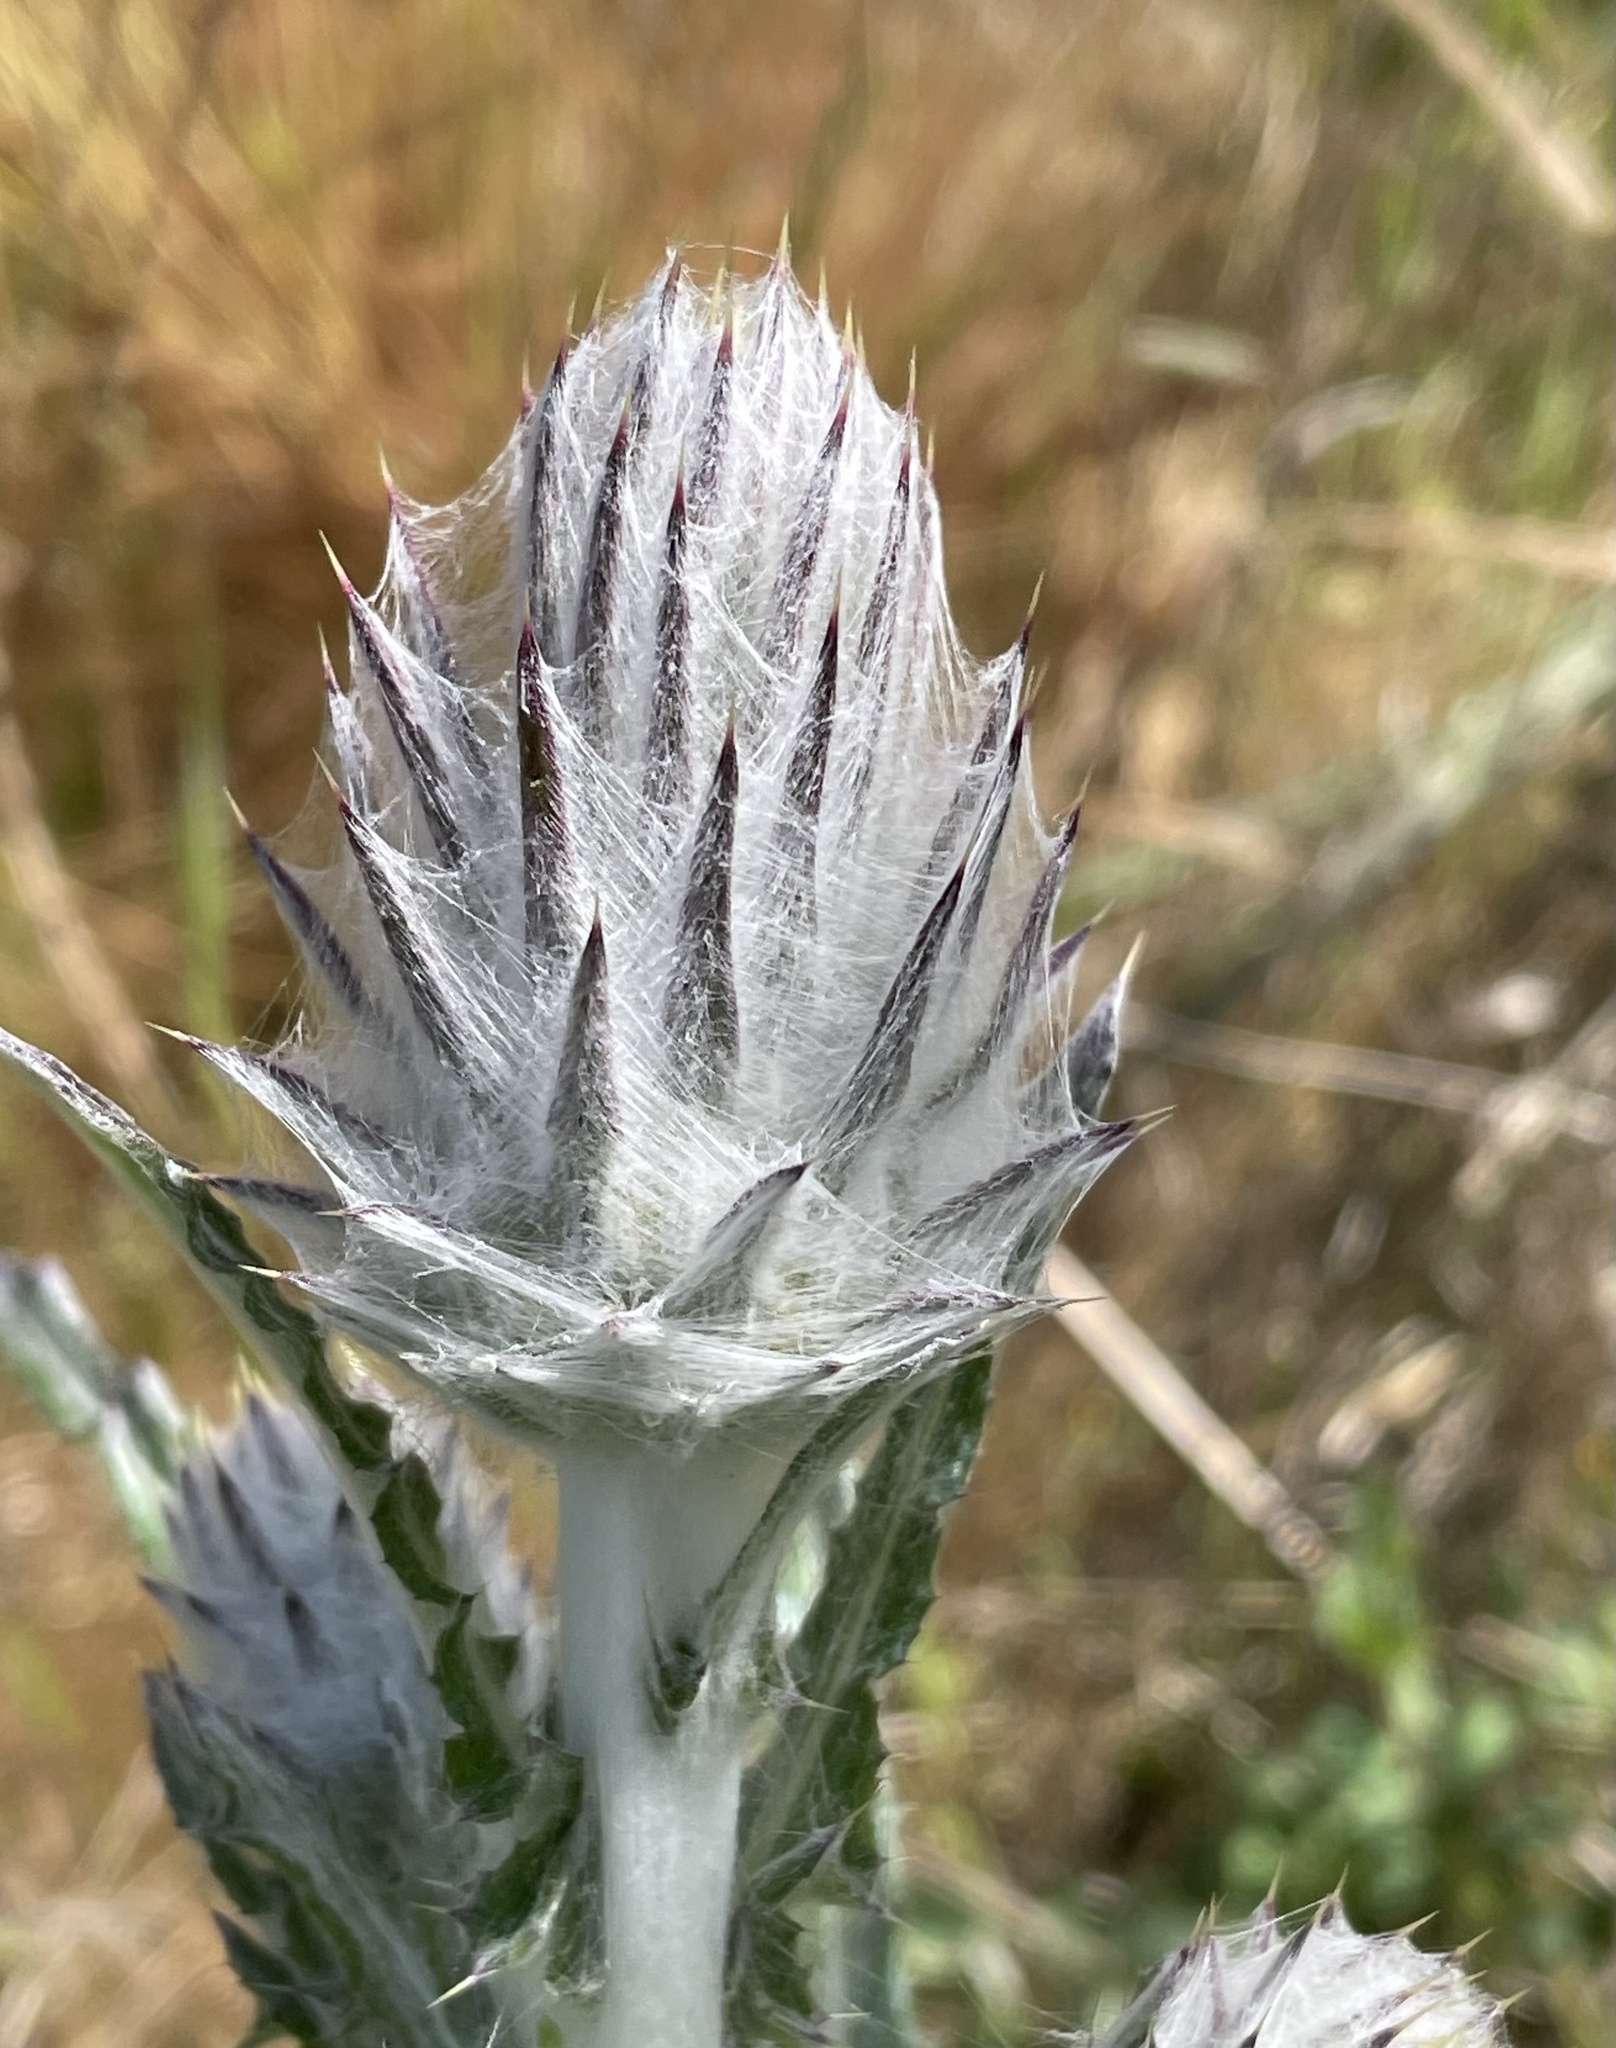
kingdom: Plantae
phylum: Tracheophyta
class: Magnoliopsida
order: Asterales
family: Asteraceae
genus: Cirsium
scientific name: Cirsium occidentale
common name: Western thistle
